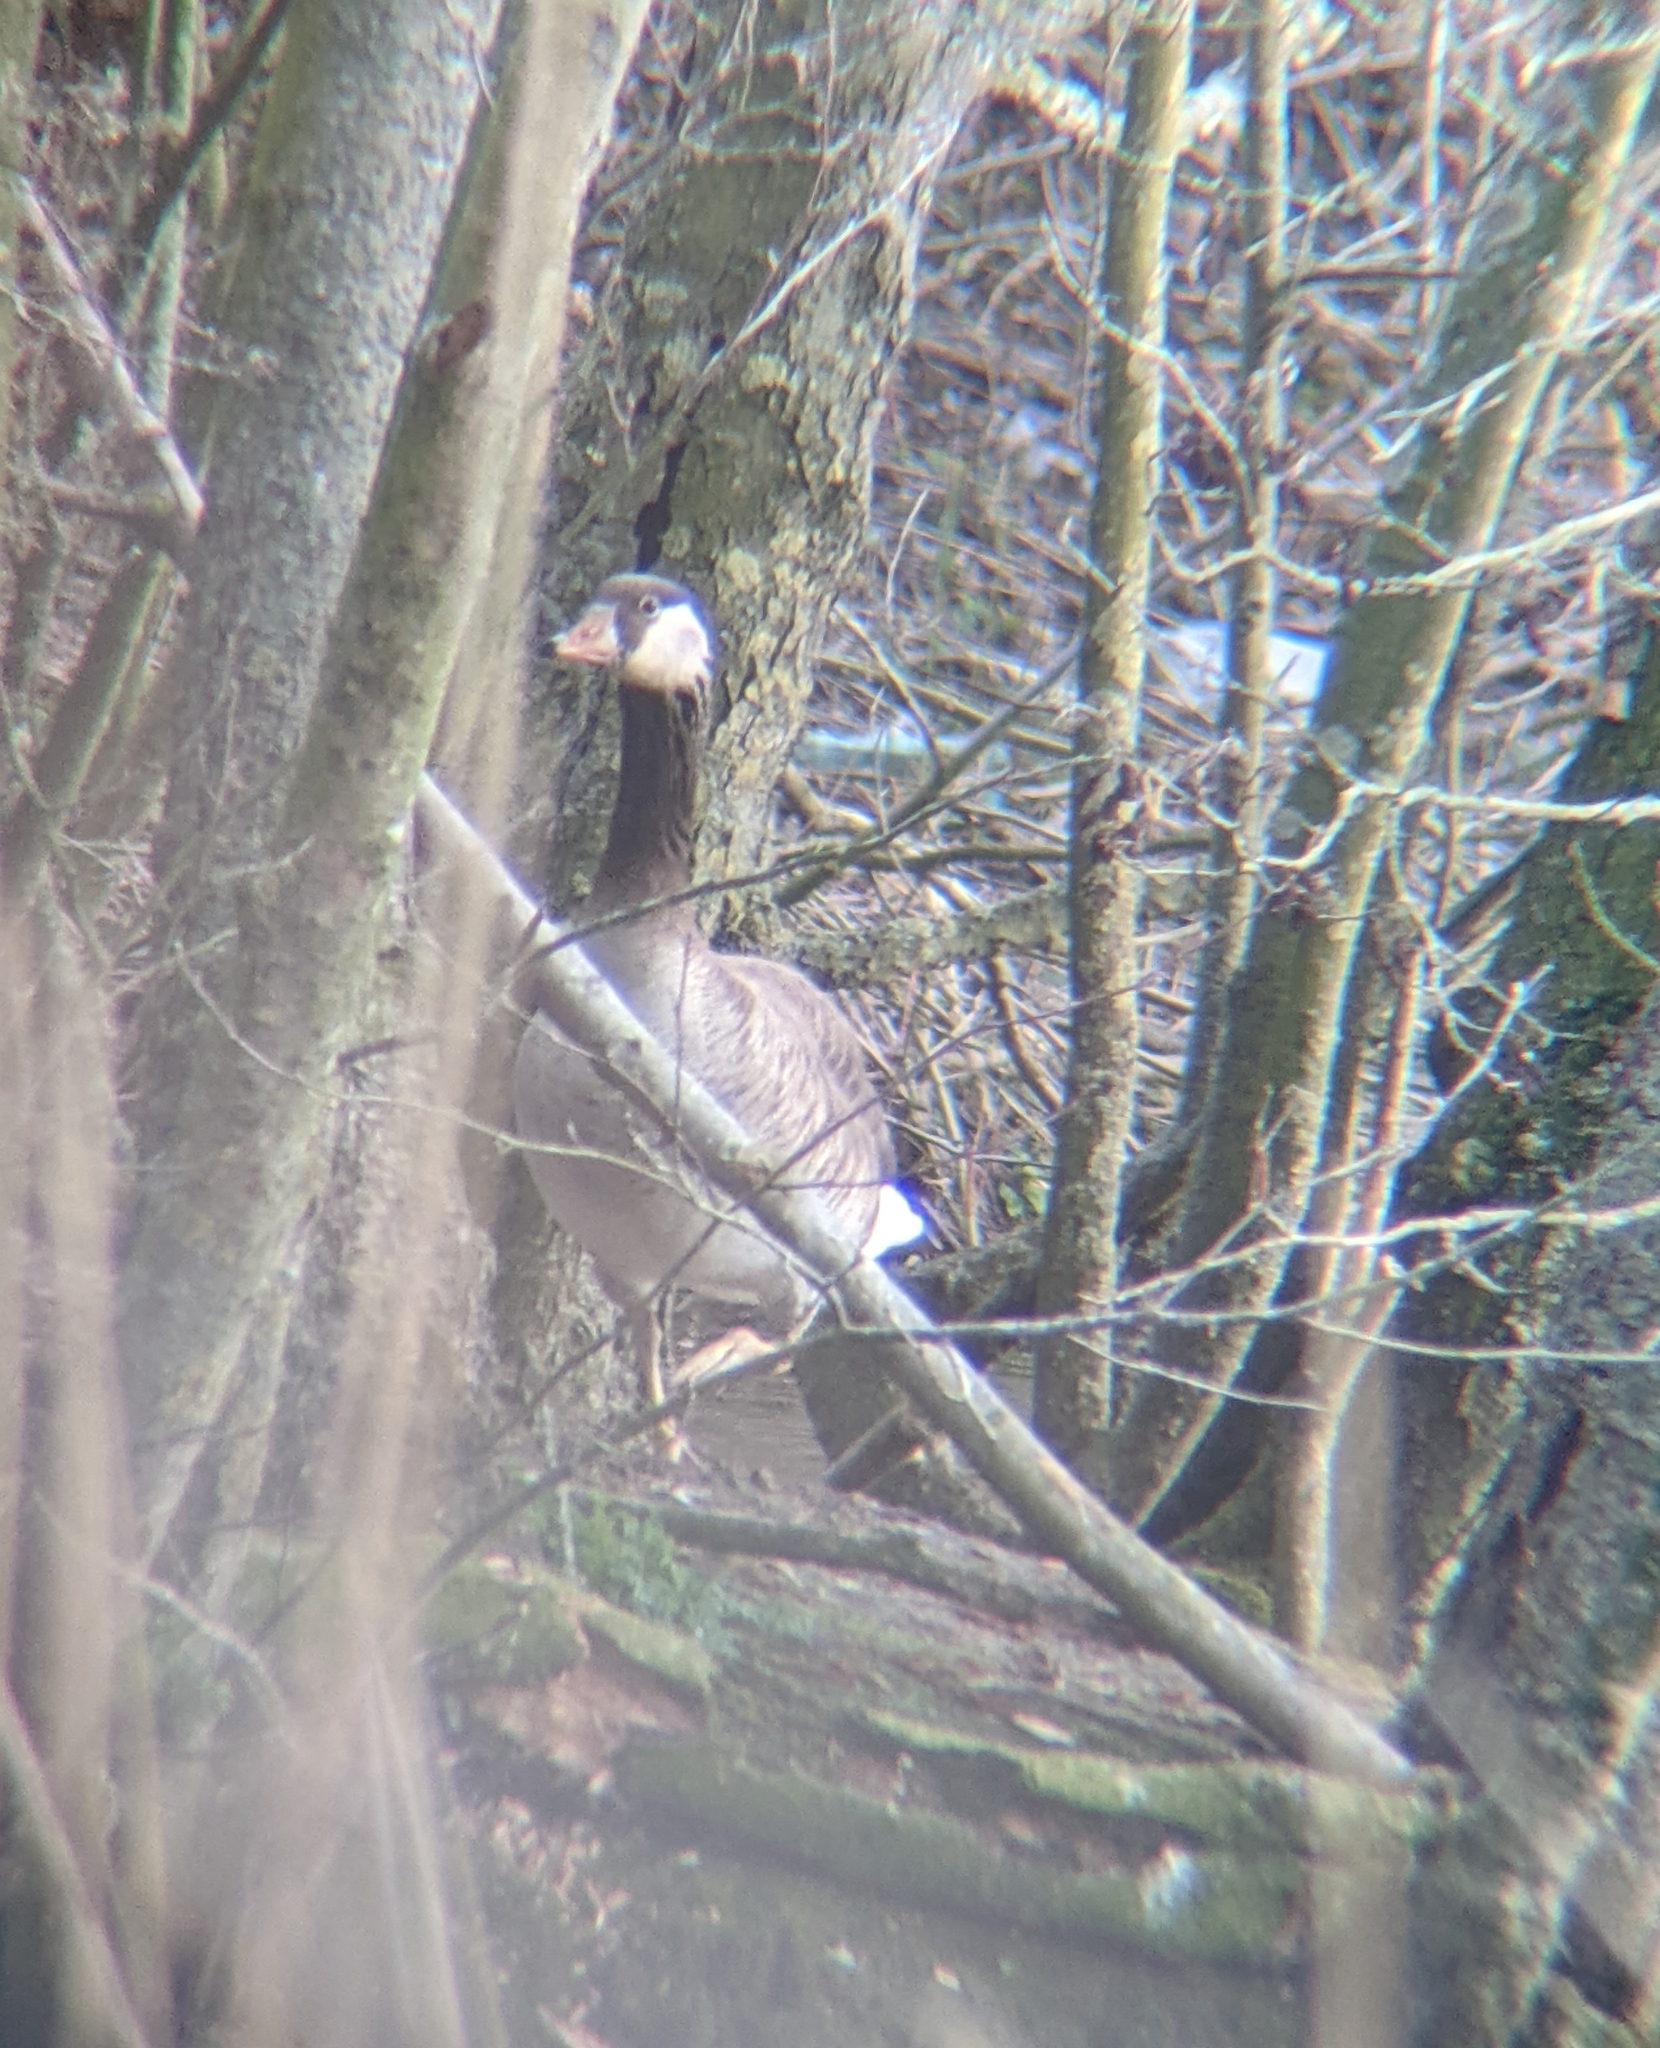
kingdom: Animalia
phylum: Chordata
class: Aves
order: Anseriformes
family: Anatidae
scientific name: Anatidae
